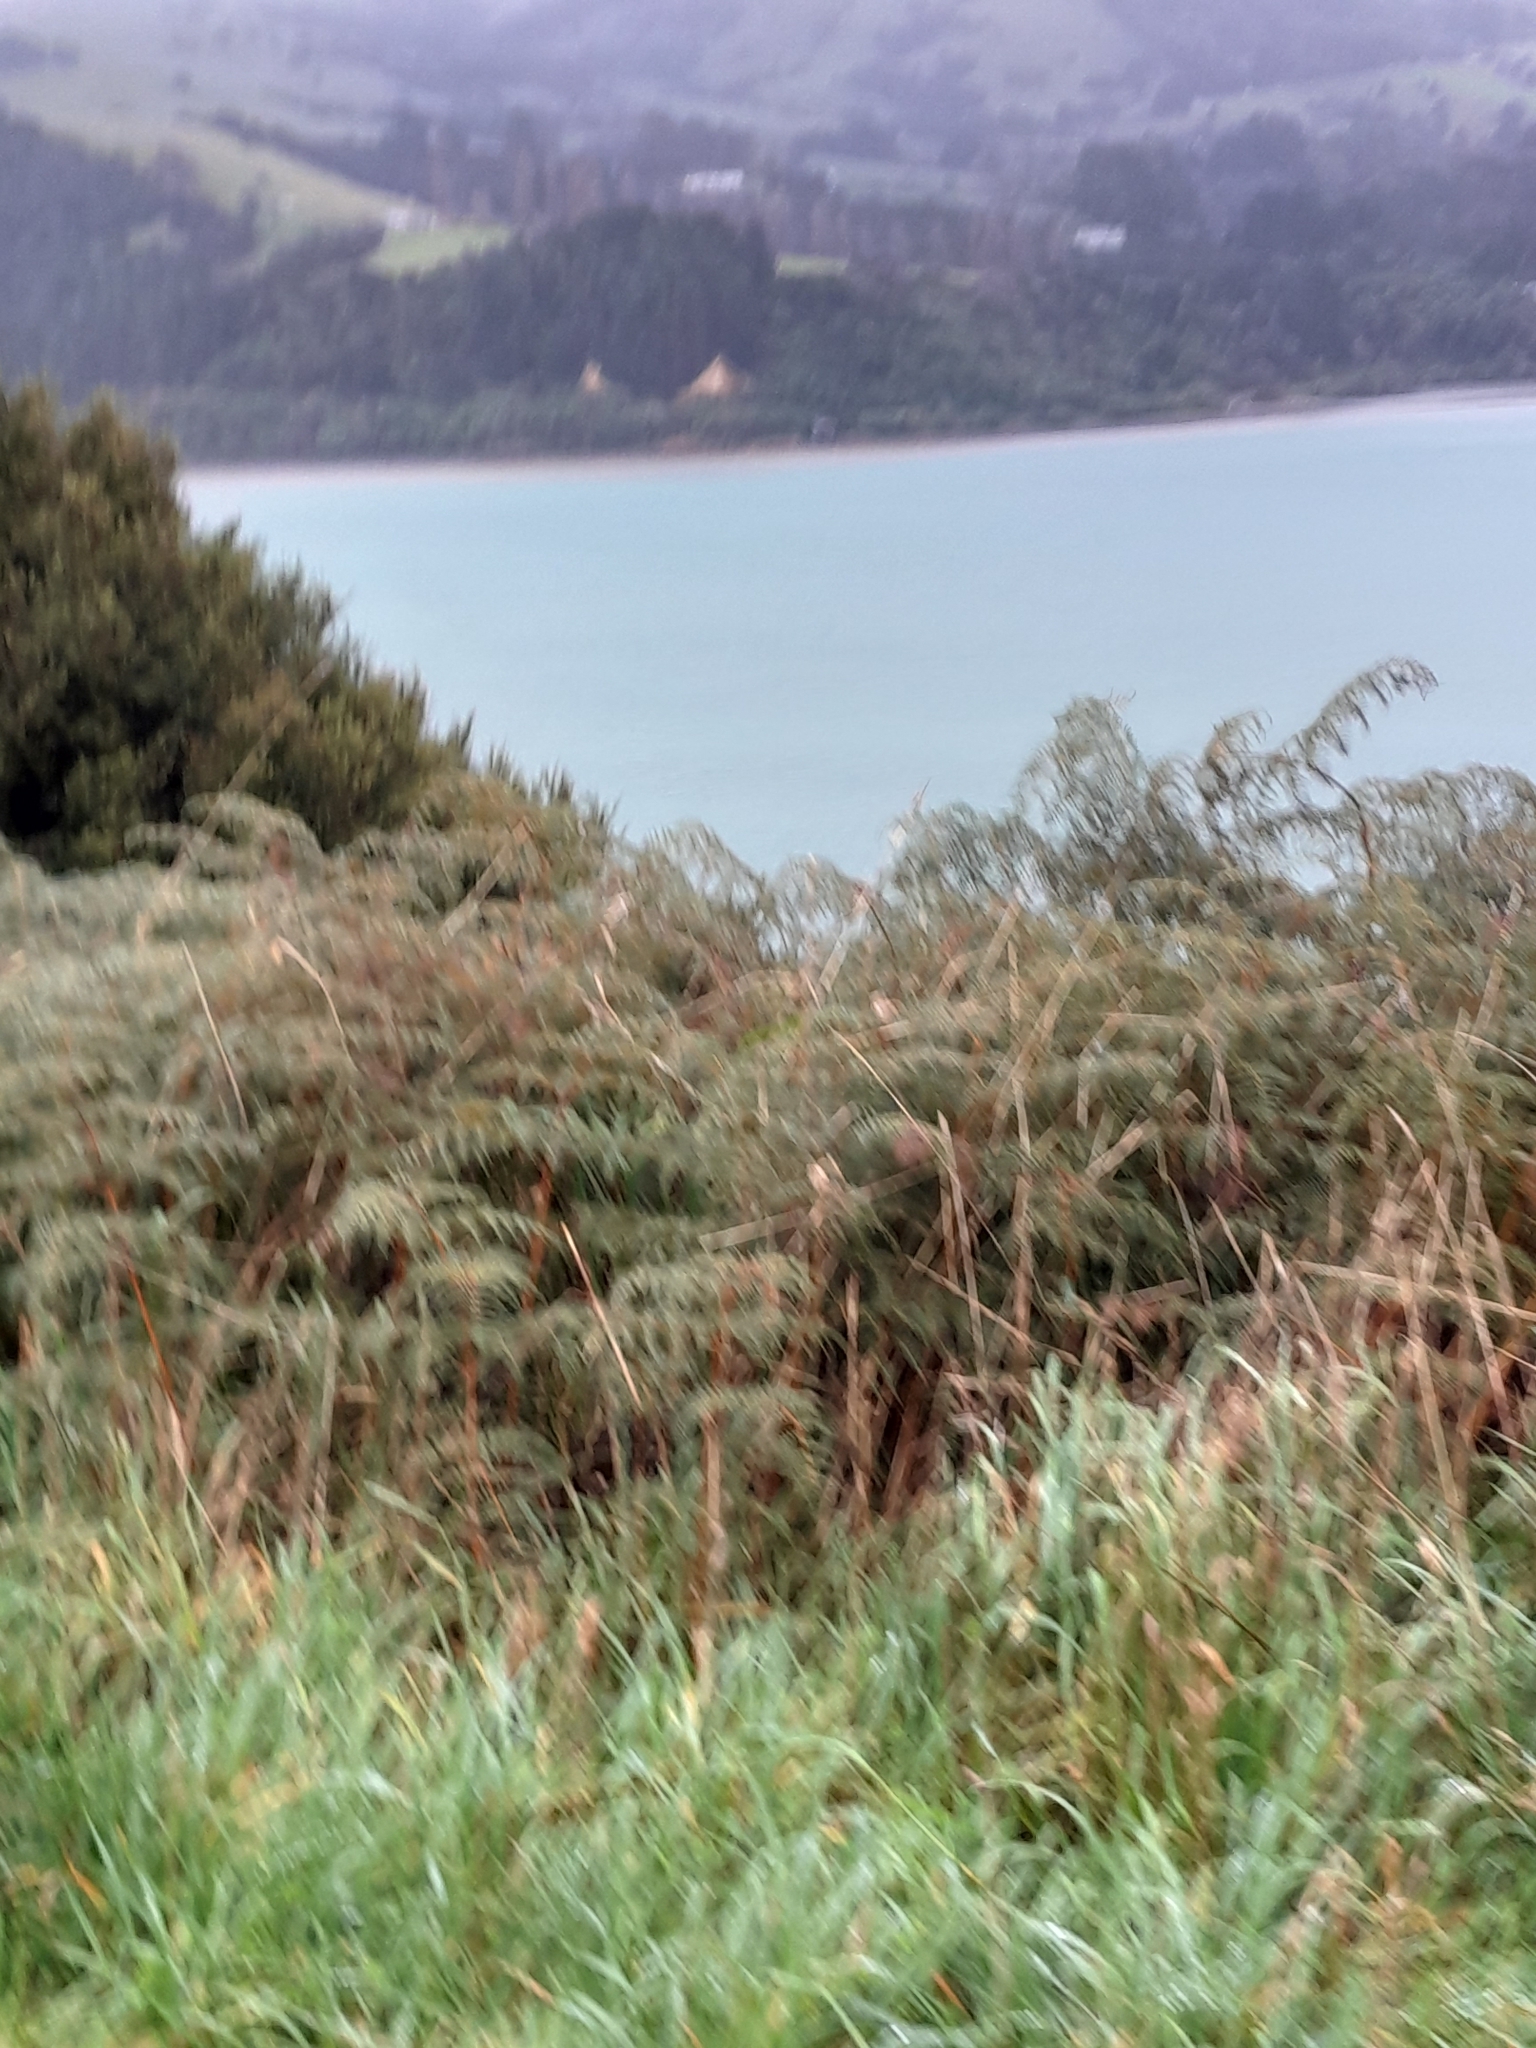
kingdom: Plantae
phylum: Tracheophyta
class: Polypodiopsida
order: Polypodiales
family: Dennstaedtiaceae
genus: Pteridium
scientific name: Pteridium esculentum
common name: Bracken fern
